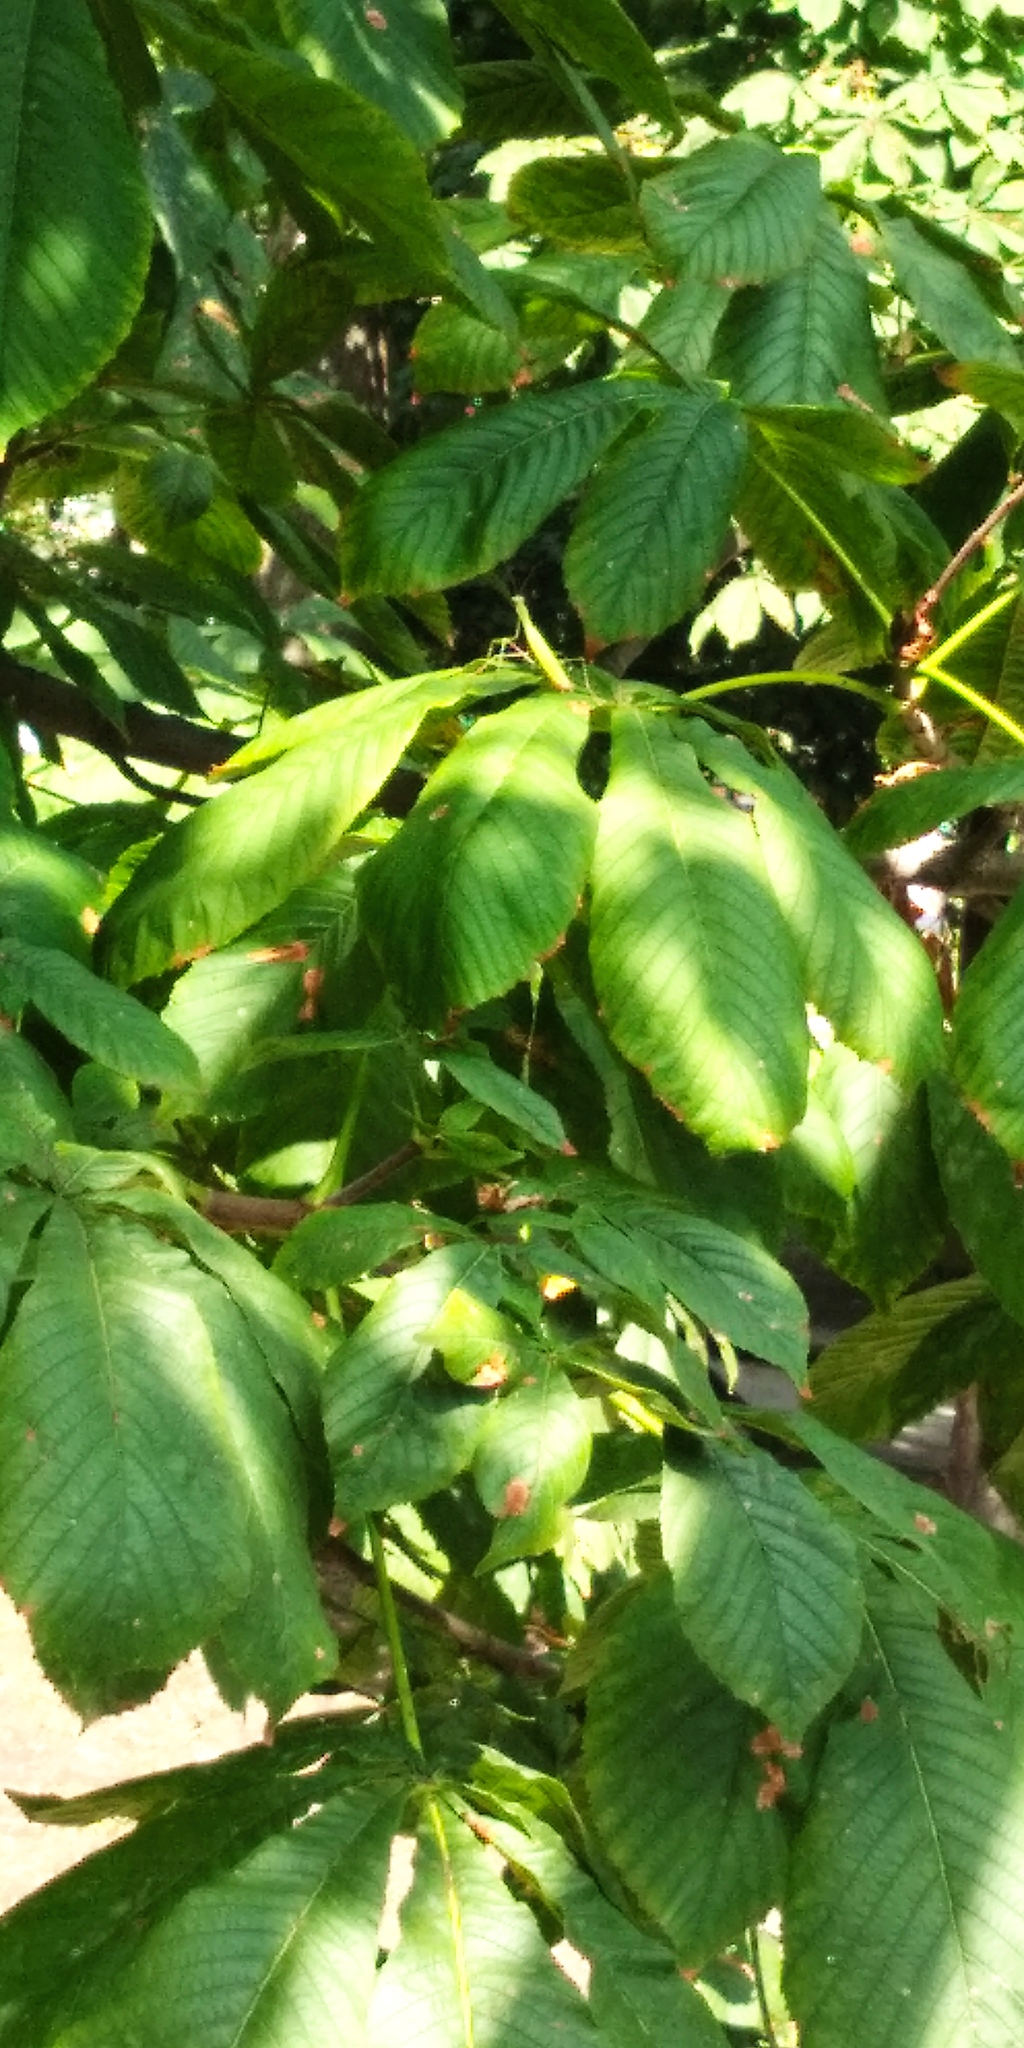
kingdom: Animalia
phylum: Arthropoda
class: Insecta
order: Mantodea
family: Mantidae
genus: Mantis
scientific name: Mantis religiosa
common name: Praying mantis
